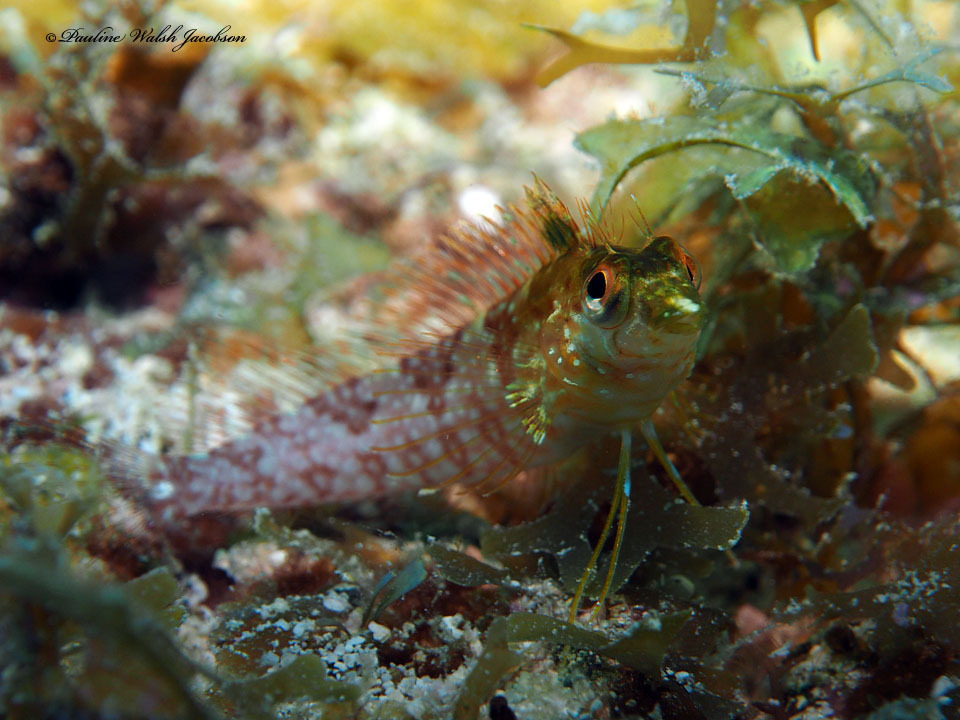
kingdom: Animalia
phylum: Chordata
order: Perciformes
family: Labrisomidae
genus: Malacoctenus
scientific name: Malacoctenus boehlkei
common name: Diamond blenny
